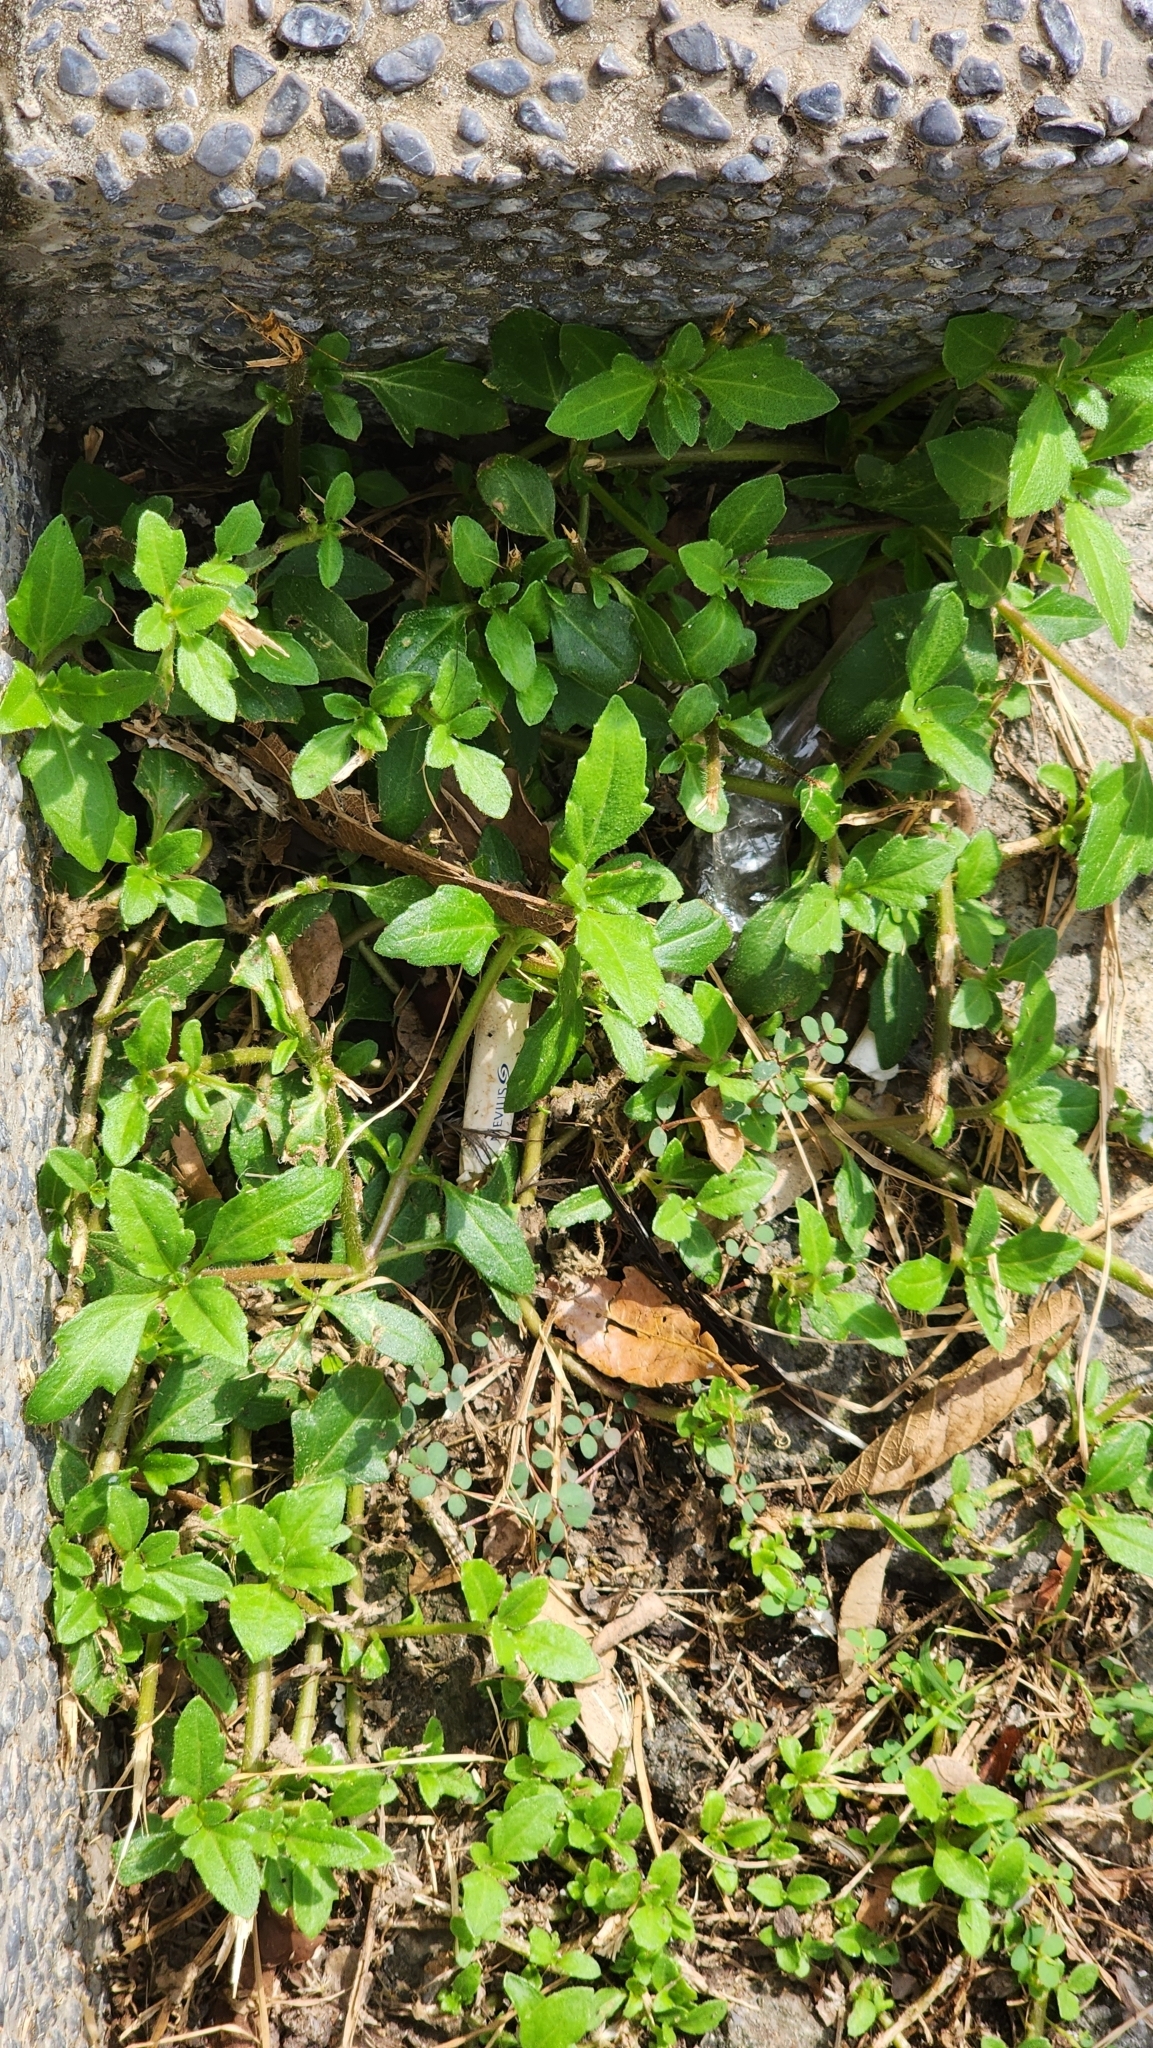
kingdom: Plantae
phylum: Tracheophyta
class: Magnoliopsida
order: Asterales
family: Asteraceae
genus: Tridax
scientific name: Tridax procumbens
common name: Coatbuttons
